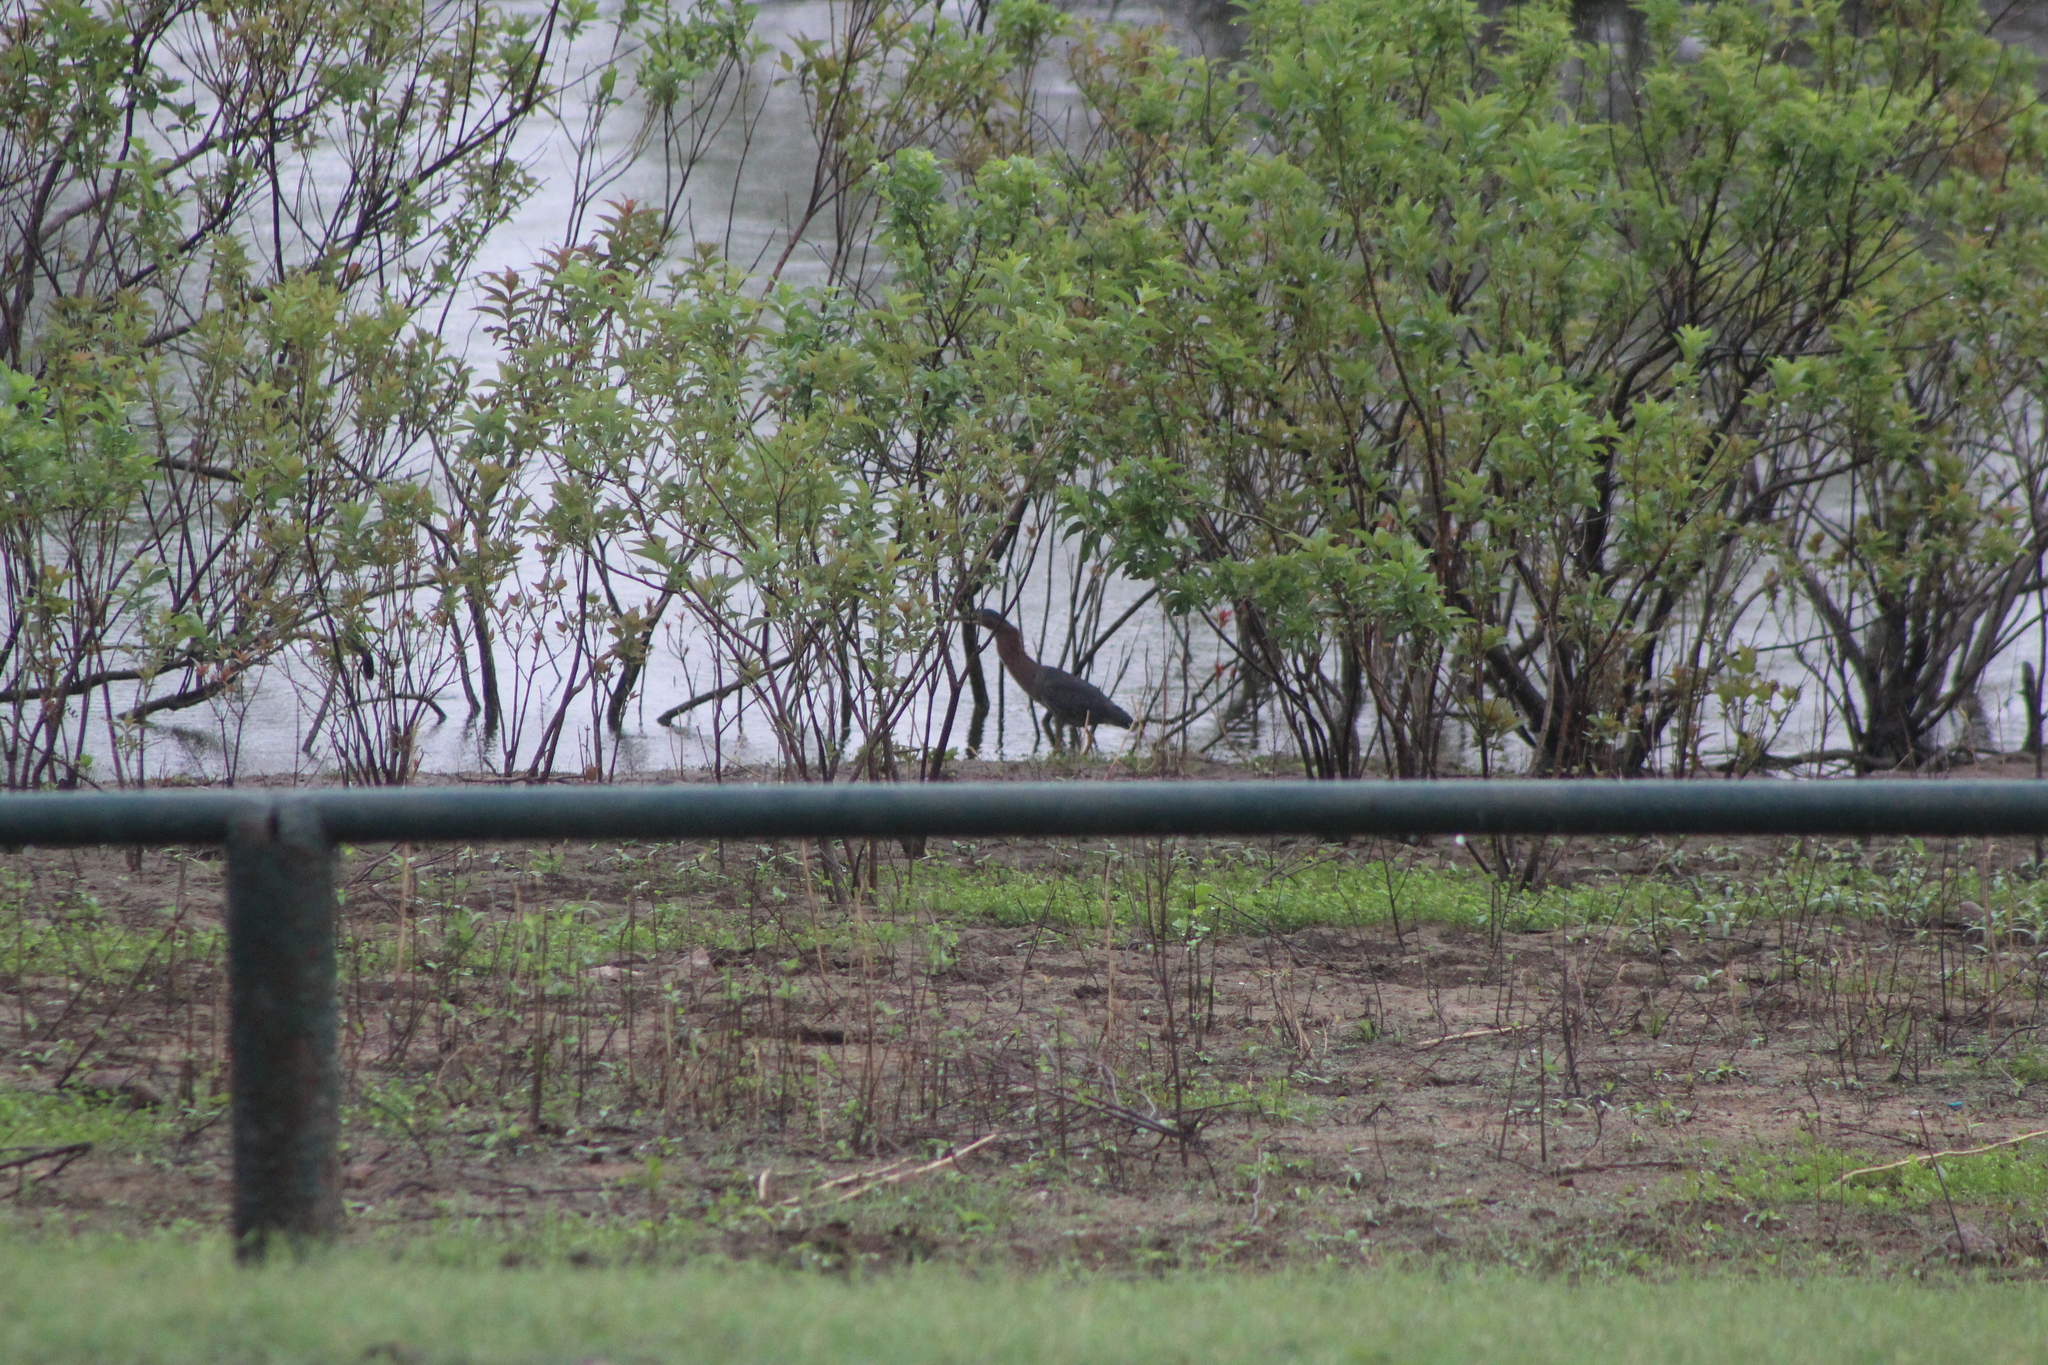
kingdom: Animalia
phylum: Chordata
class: Aves
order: Pelecaniformes
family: Ardeidae
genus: Butorides
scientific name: Butorides virescens
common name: Green heron
